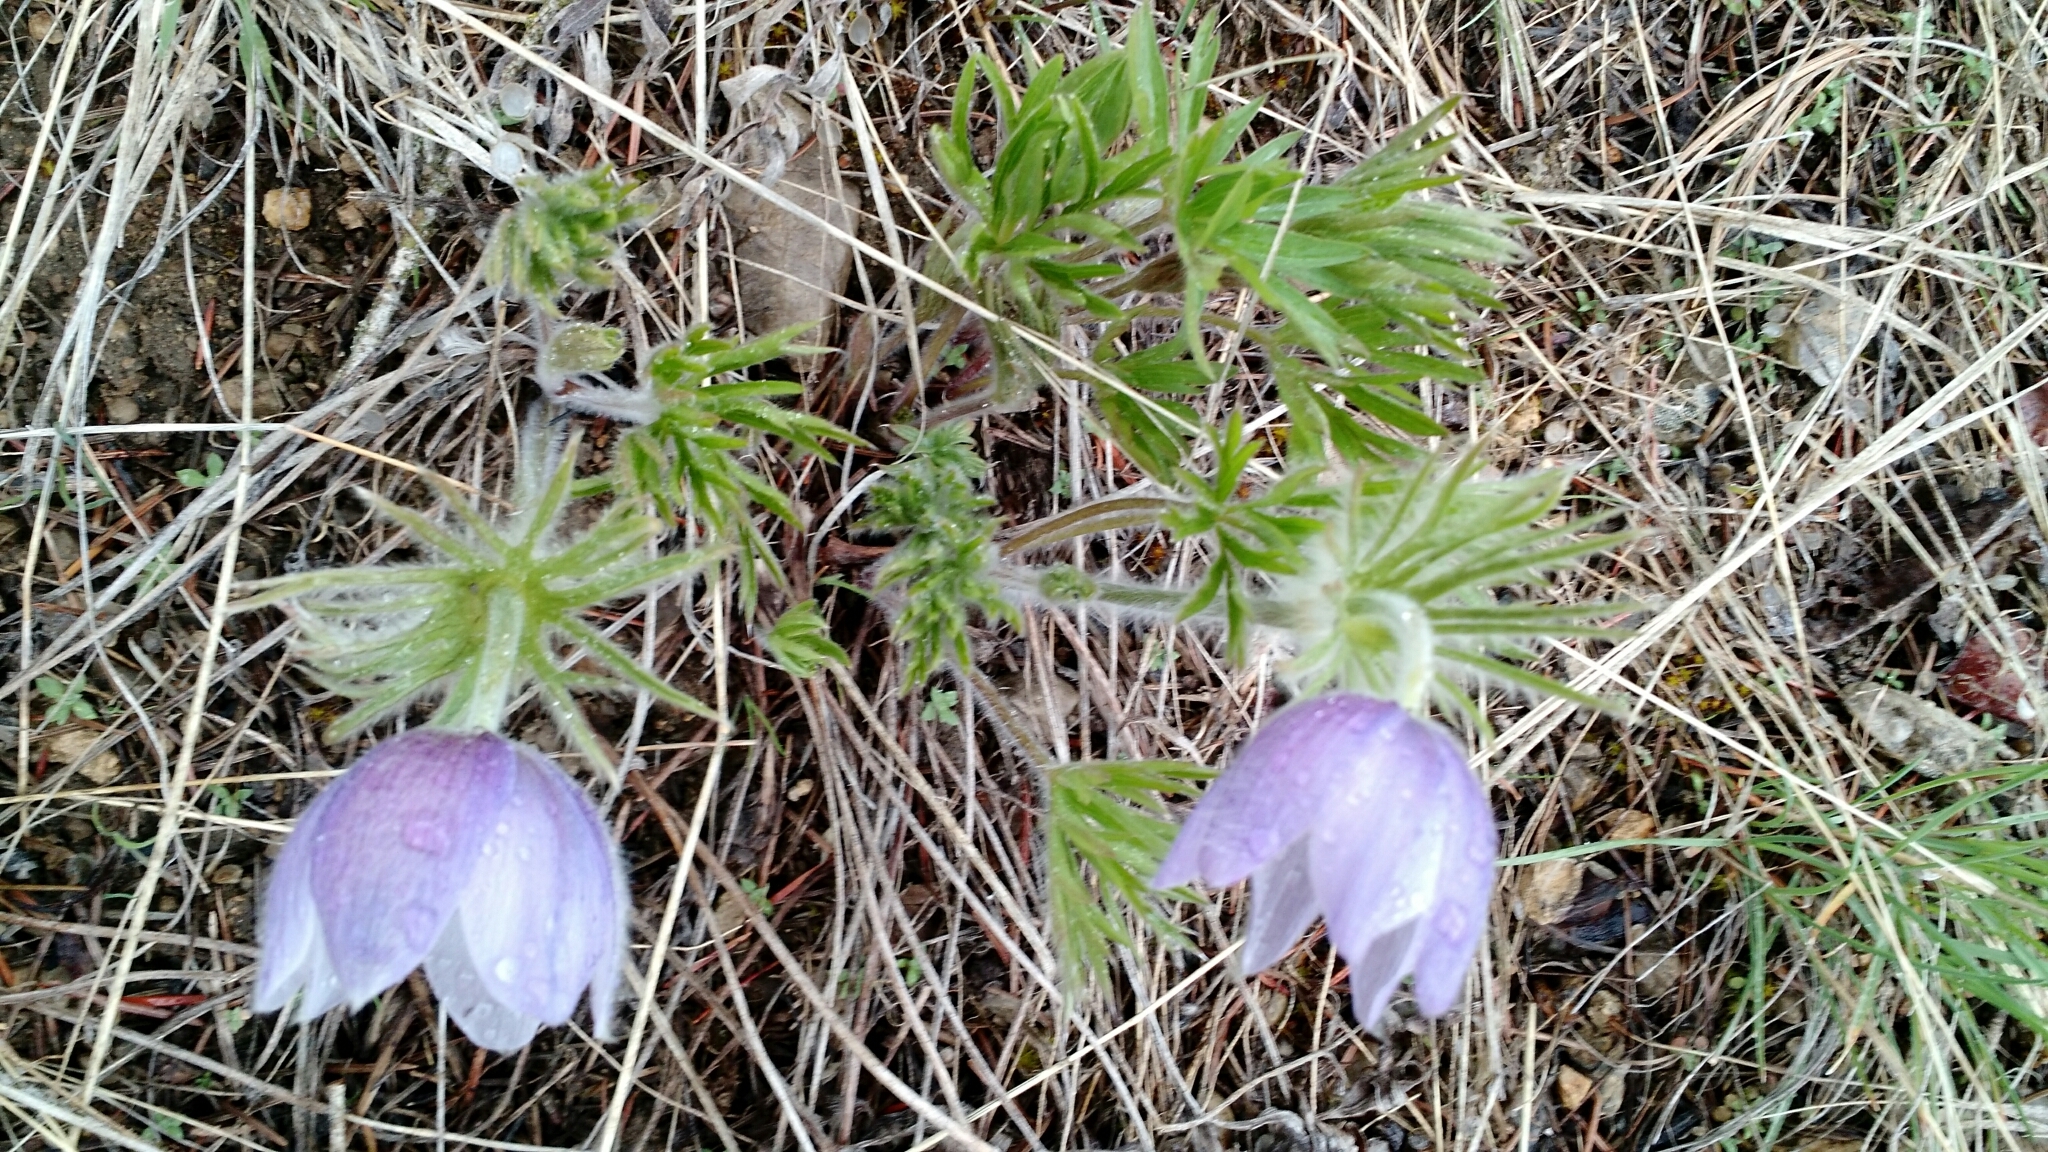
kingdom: Plantae
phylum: Tracheophyta
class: Magnoliopsida
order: Ranunculales
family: Ranunculaceae
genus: Pulsatilla
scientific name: Pulsatilla nuttalliana
